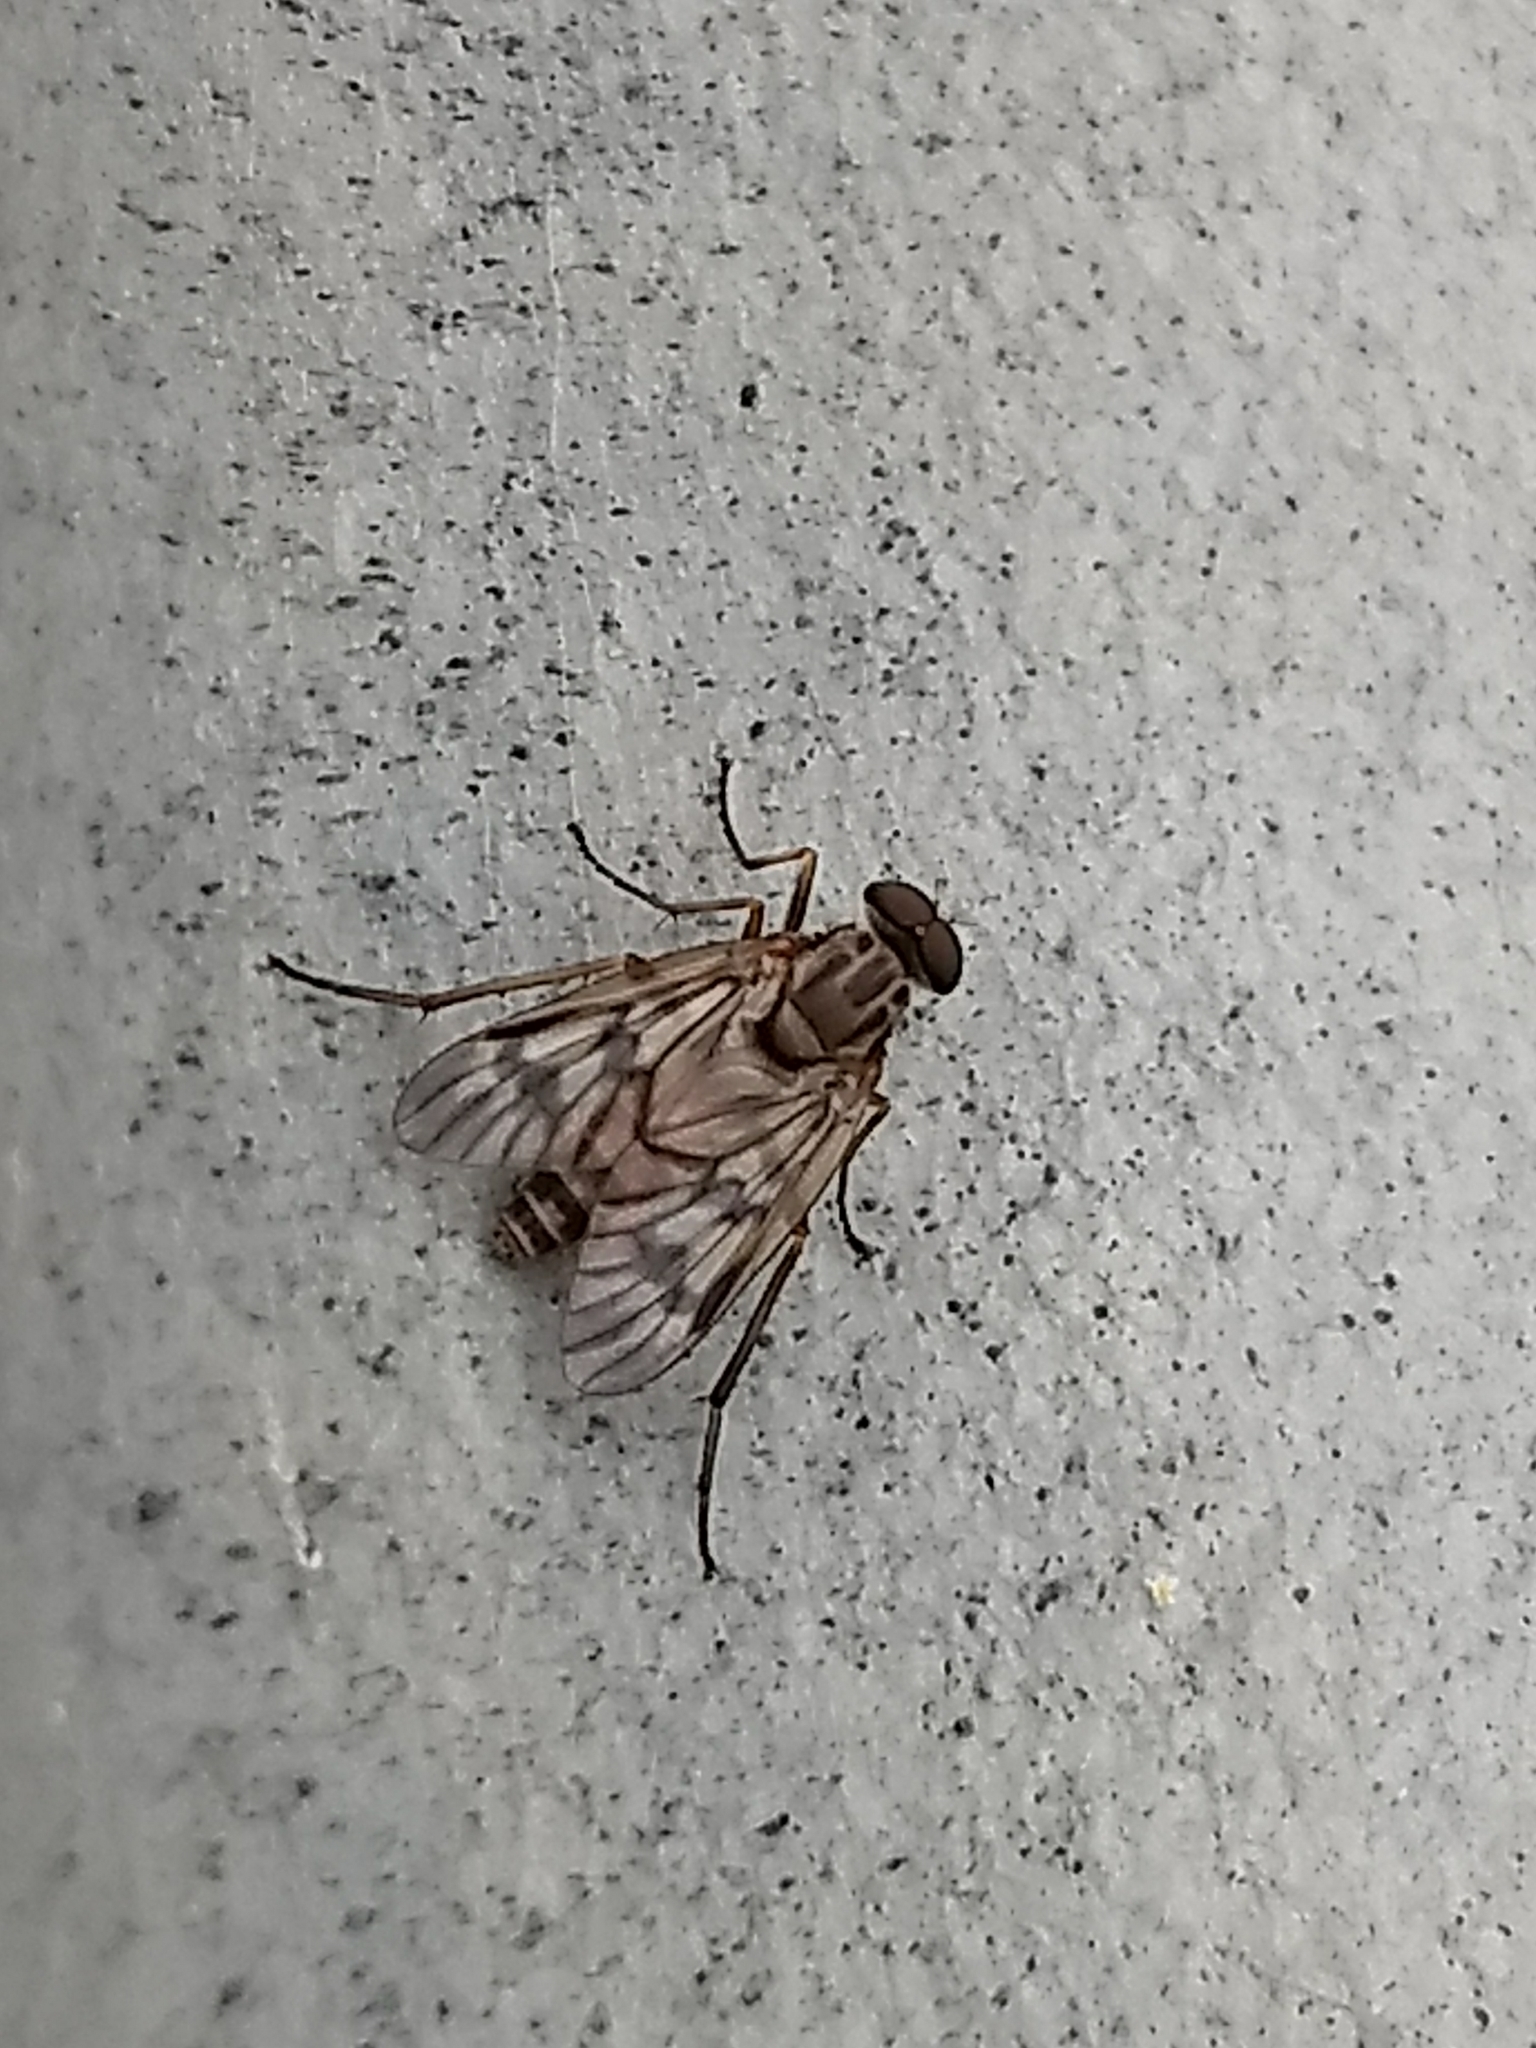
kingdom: Animalia
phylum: Arthropoda
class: Insecta
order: Diptera
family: Rhagionidae
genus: Rhagio
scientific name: Rhagio mystaceus
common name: Common snipe fly
